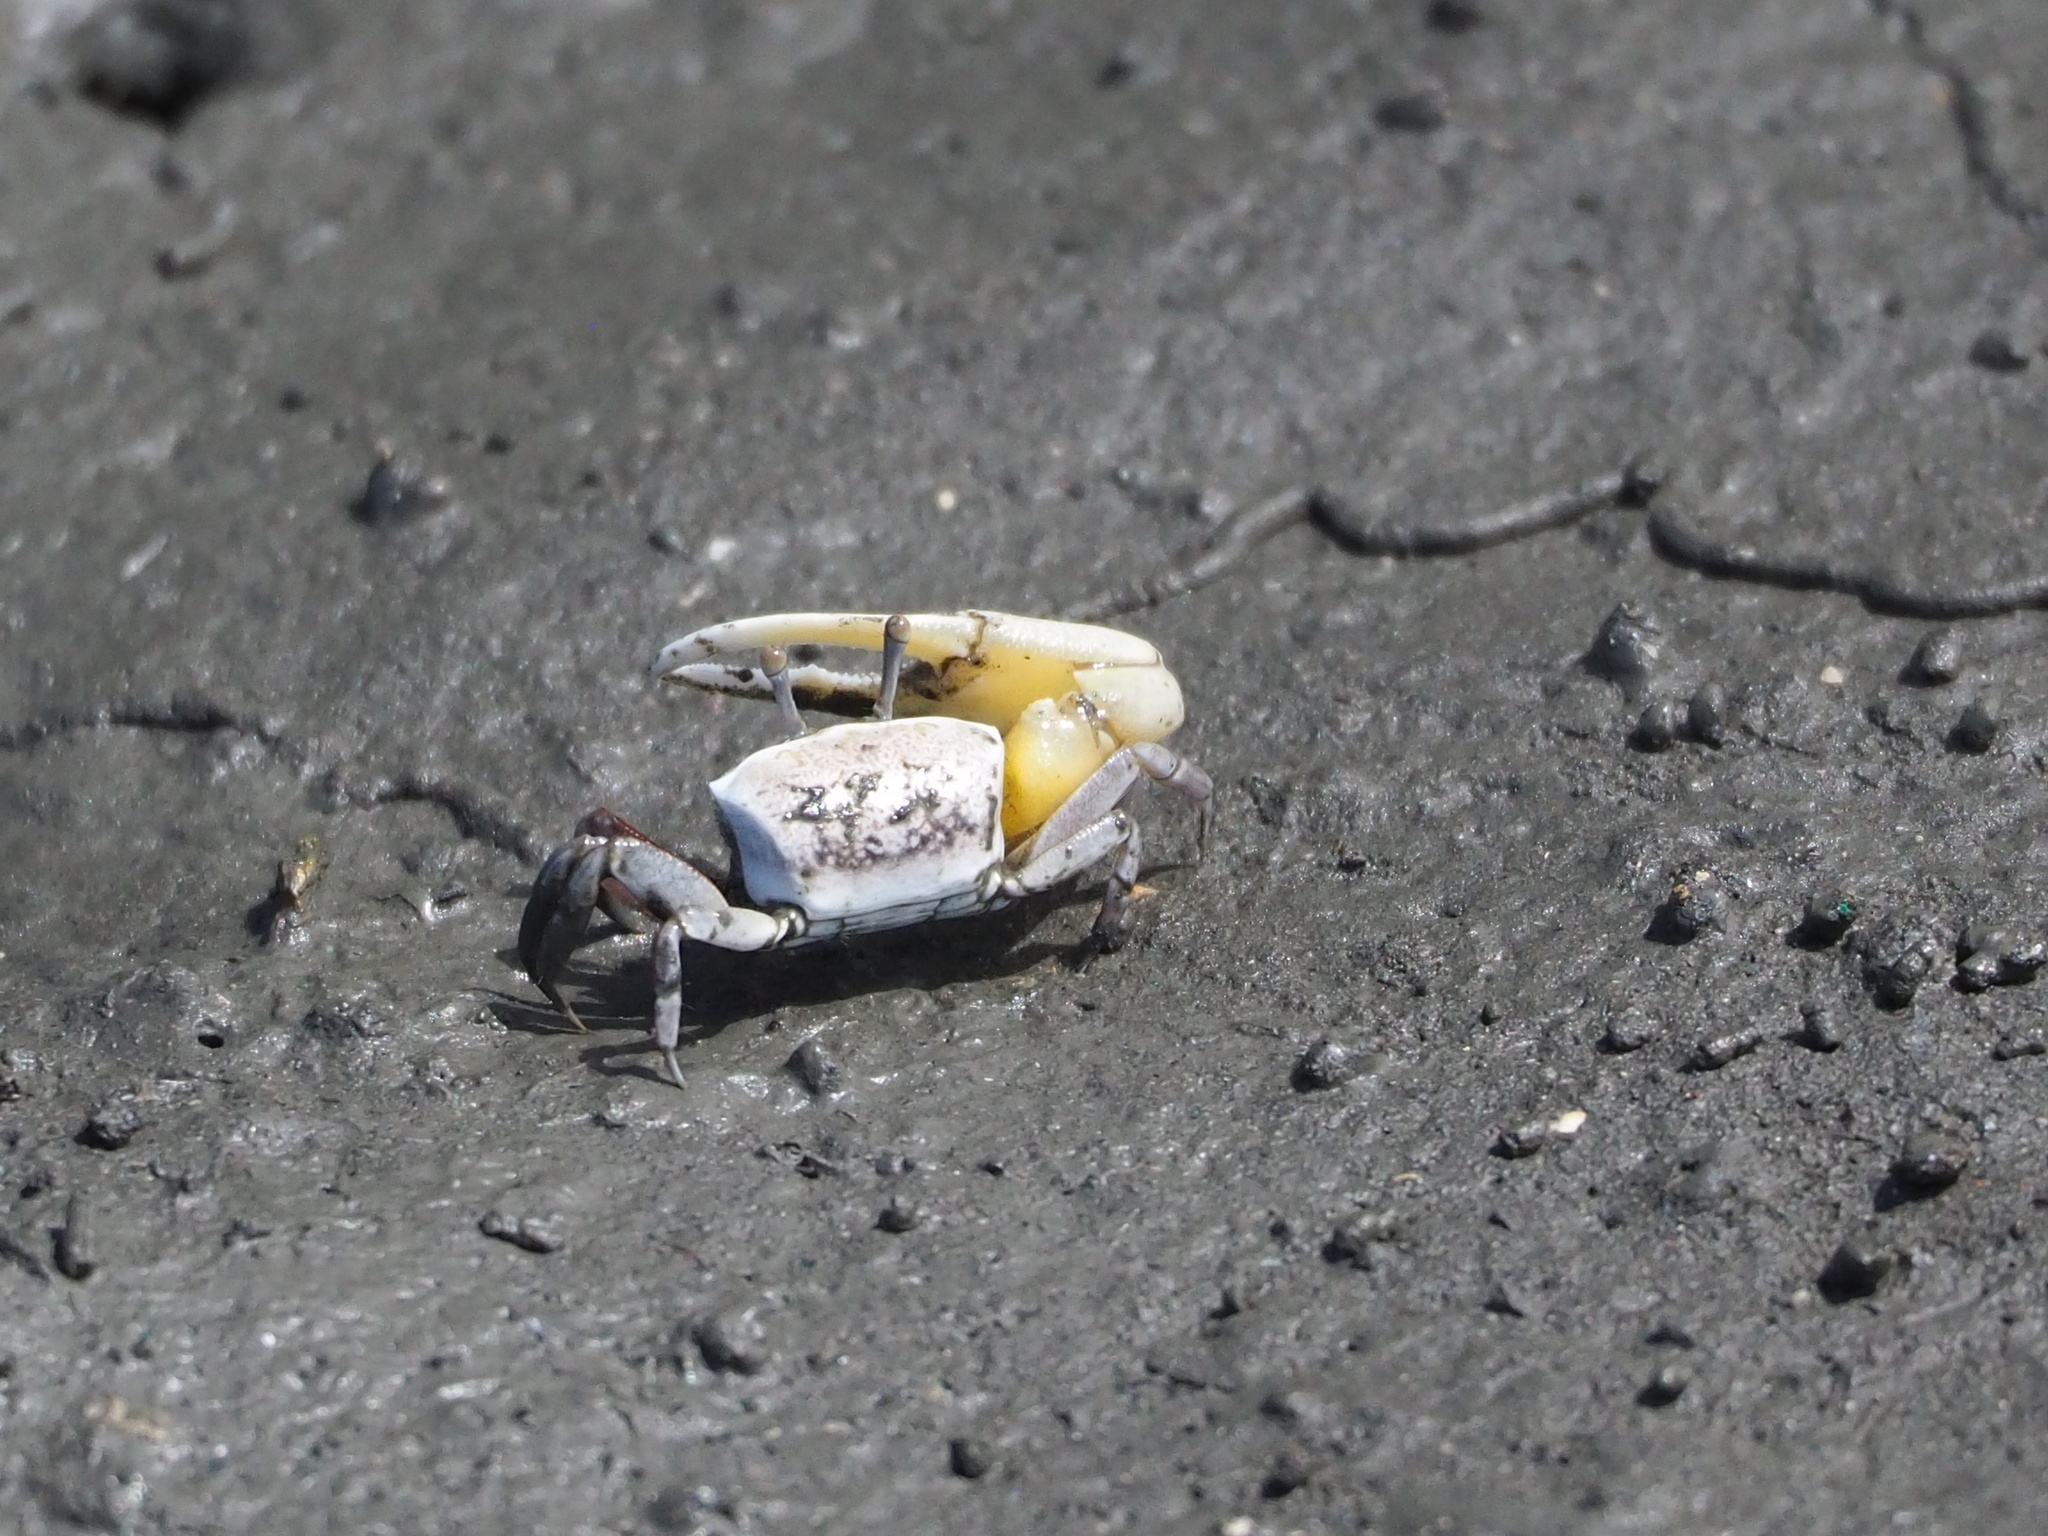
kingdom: Animalia
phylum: Arthropoda
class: Malacostraca
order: Decapoda
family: Ocypodidae
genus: Austruca
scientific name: Austruca lactea
